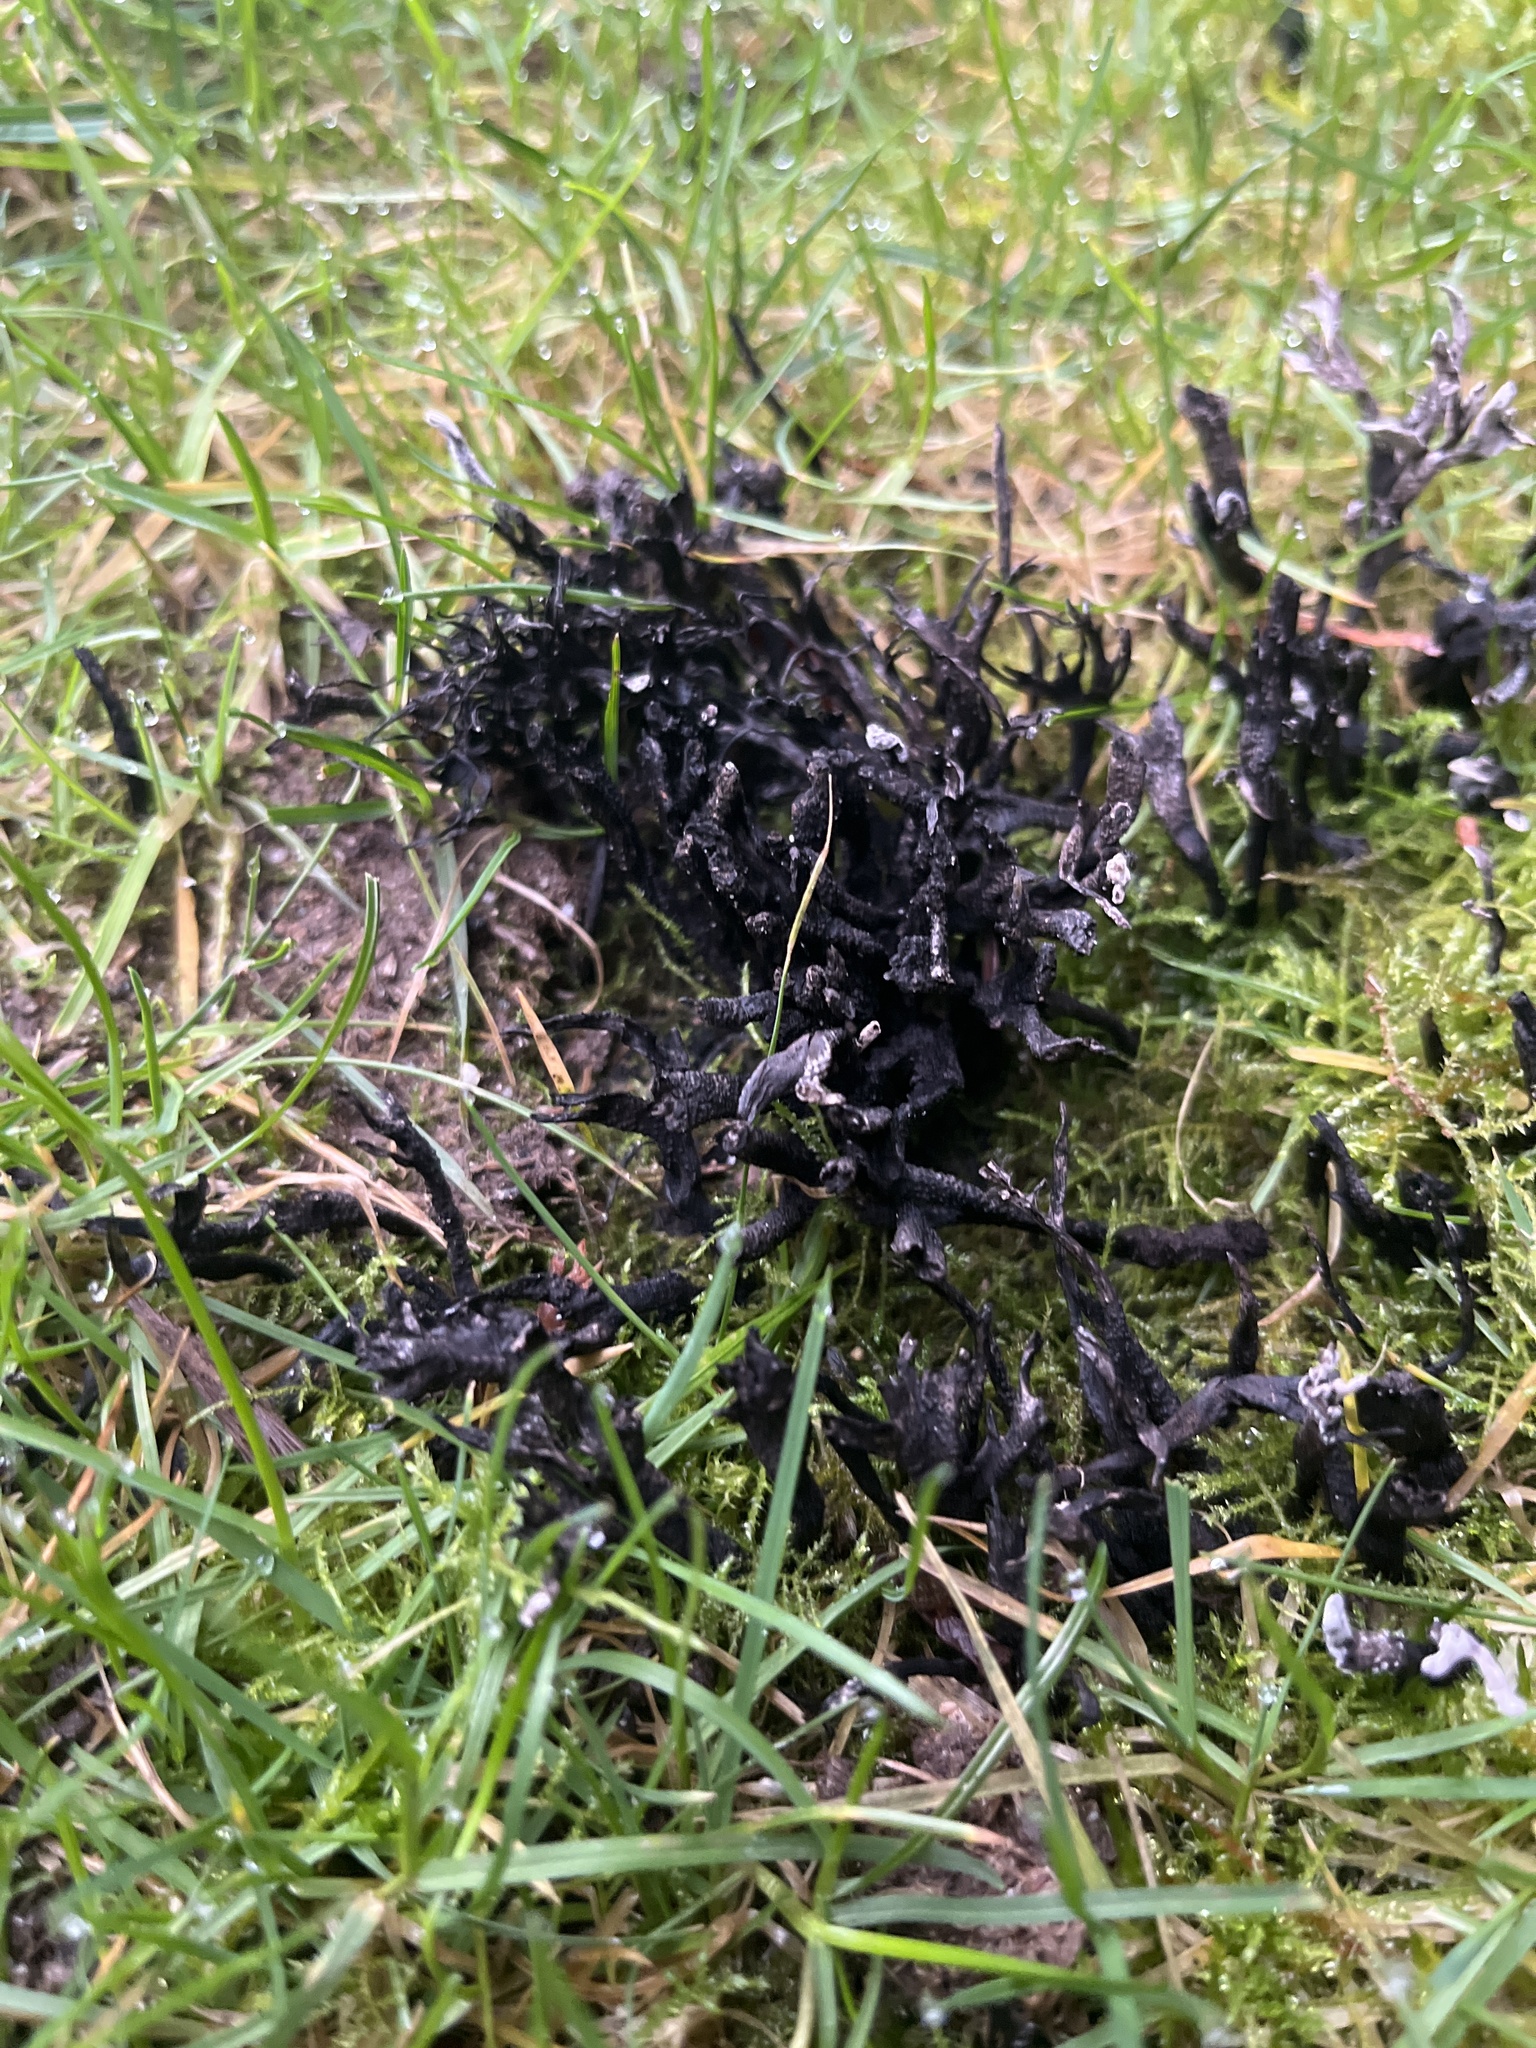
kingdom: Fungi
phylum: Ascomycota
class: Sordariomycetes
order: Xylariales
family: Xylariaceae
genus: Xylaria
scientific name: Xylaria hypoxylon
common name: Candle-snuff fungus
